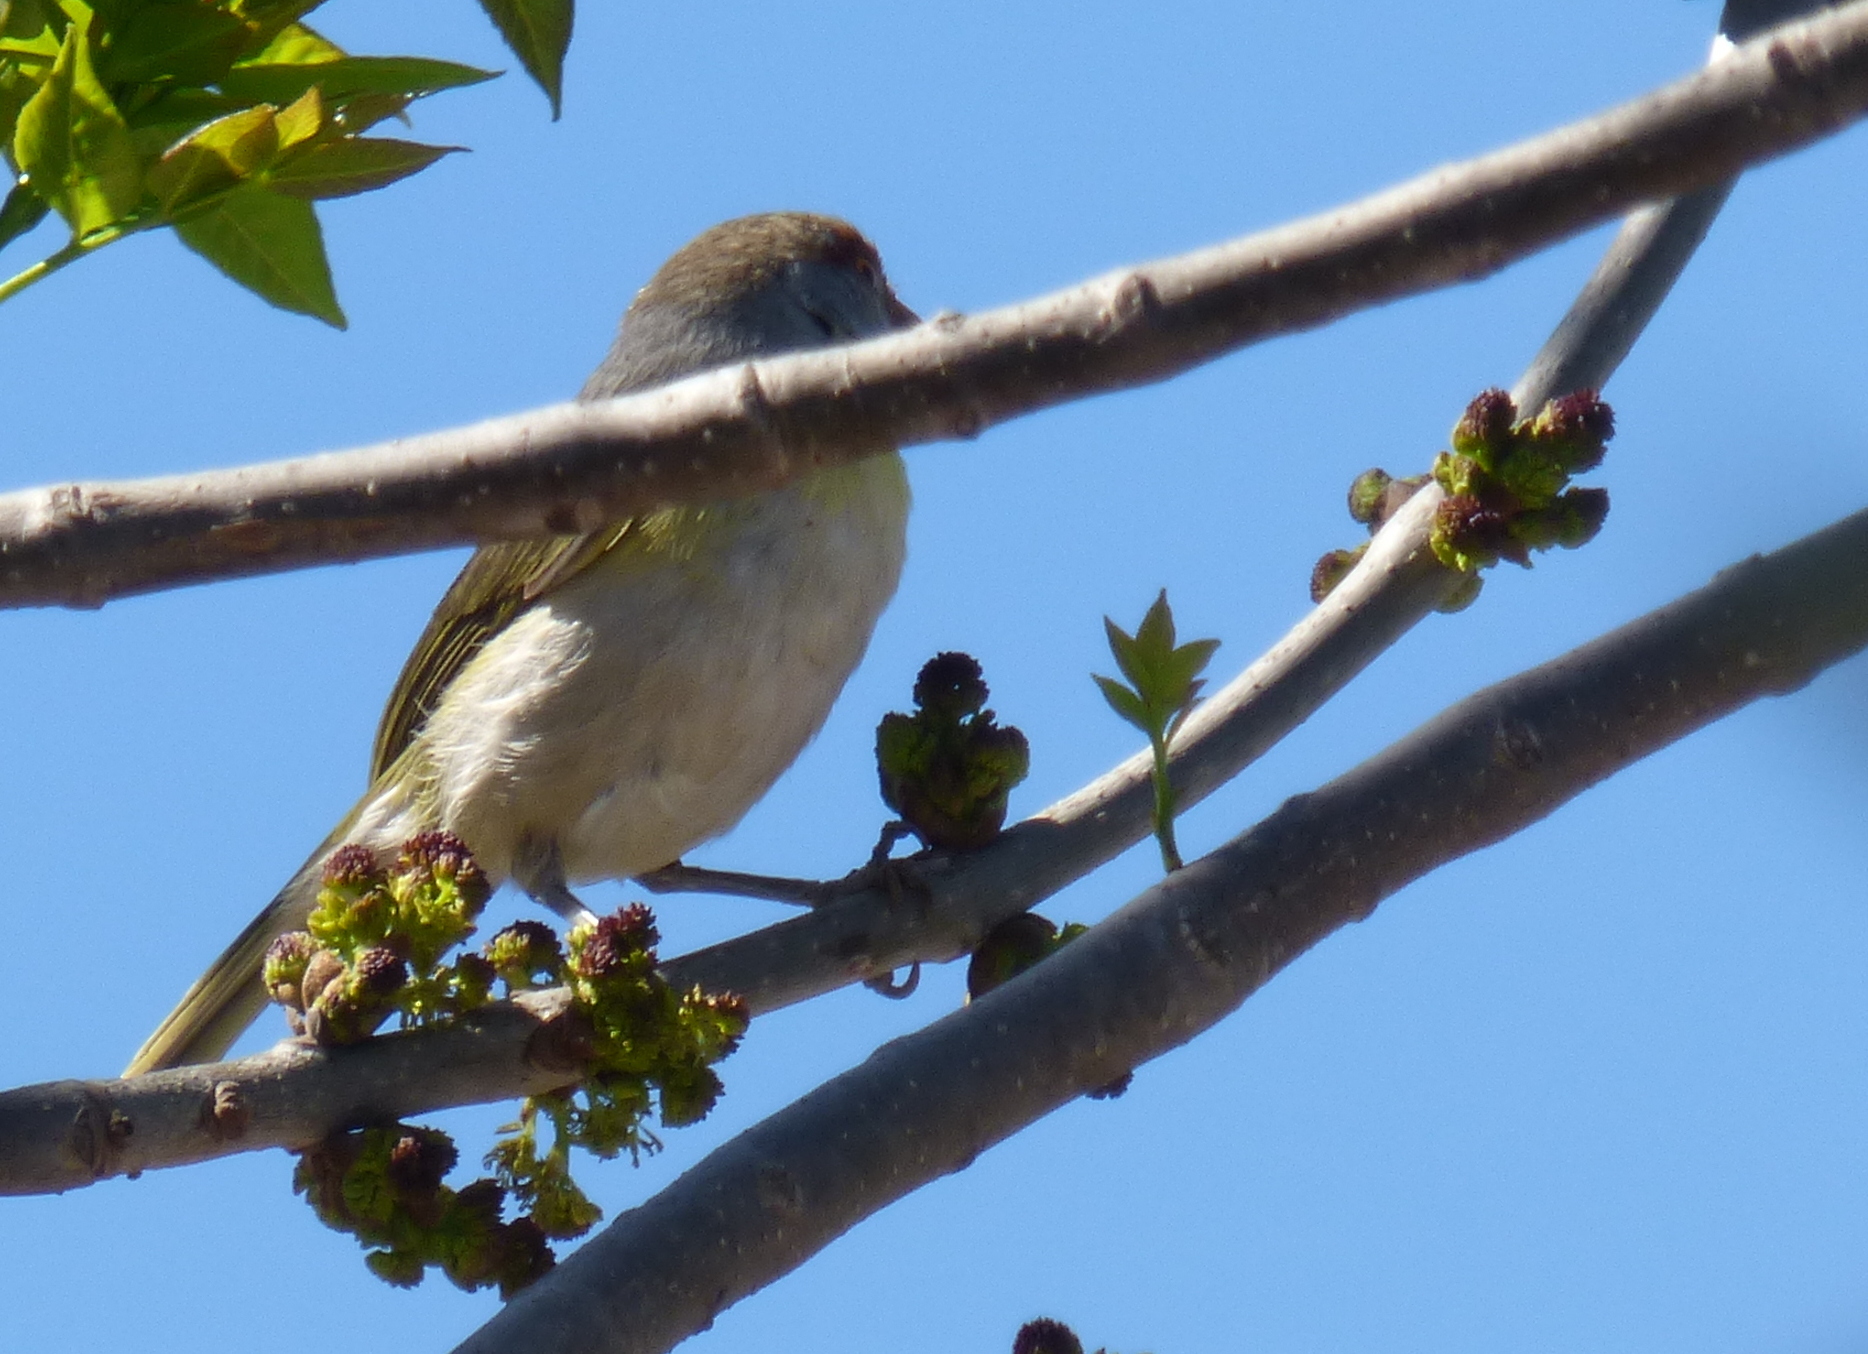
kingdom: Animalia
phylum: Chordata
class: Aves
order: Passeriformes
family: Vireonidae
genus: Cyclarhis
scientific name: Cyclarhis gujanensis
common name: Rufous-browed peppershrike
